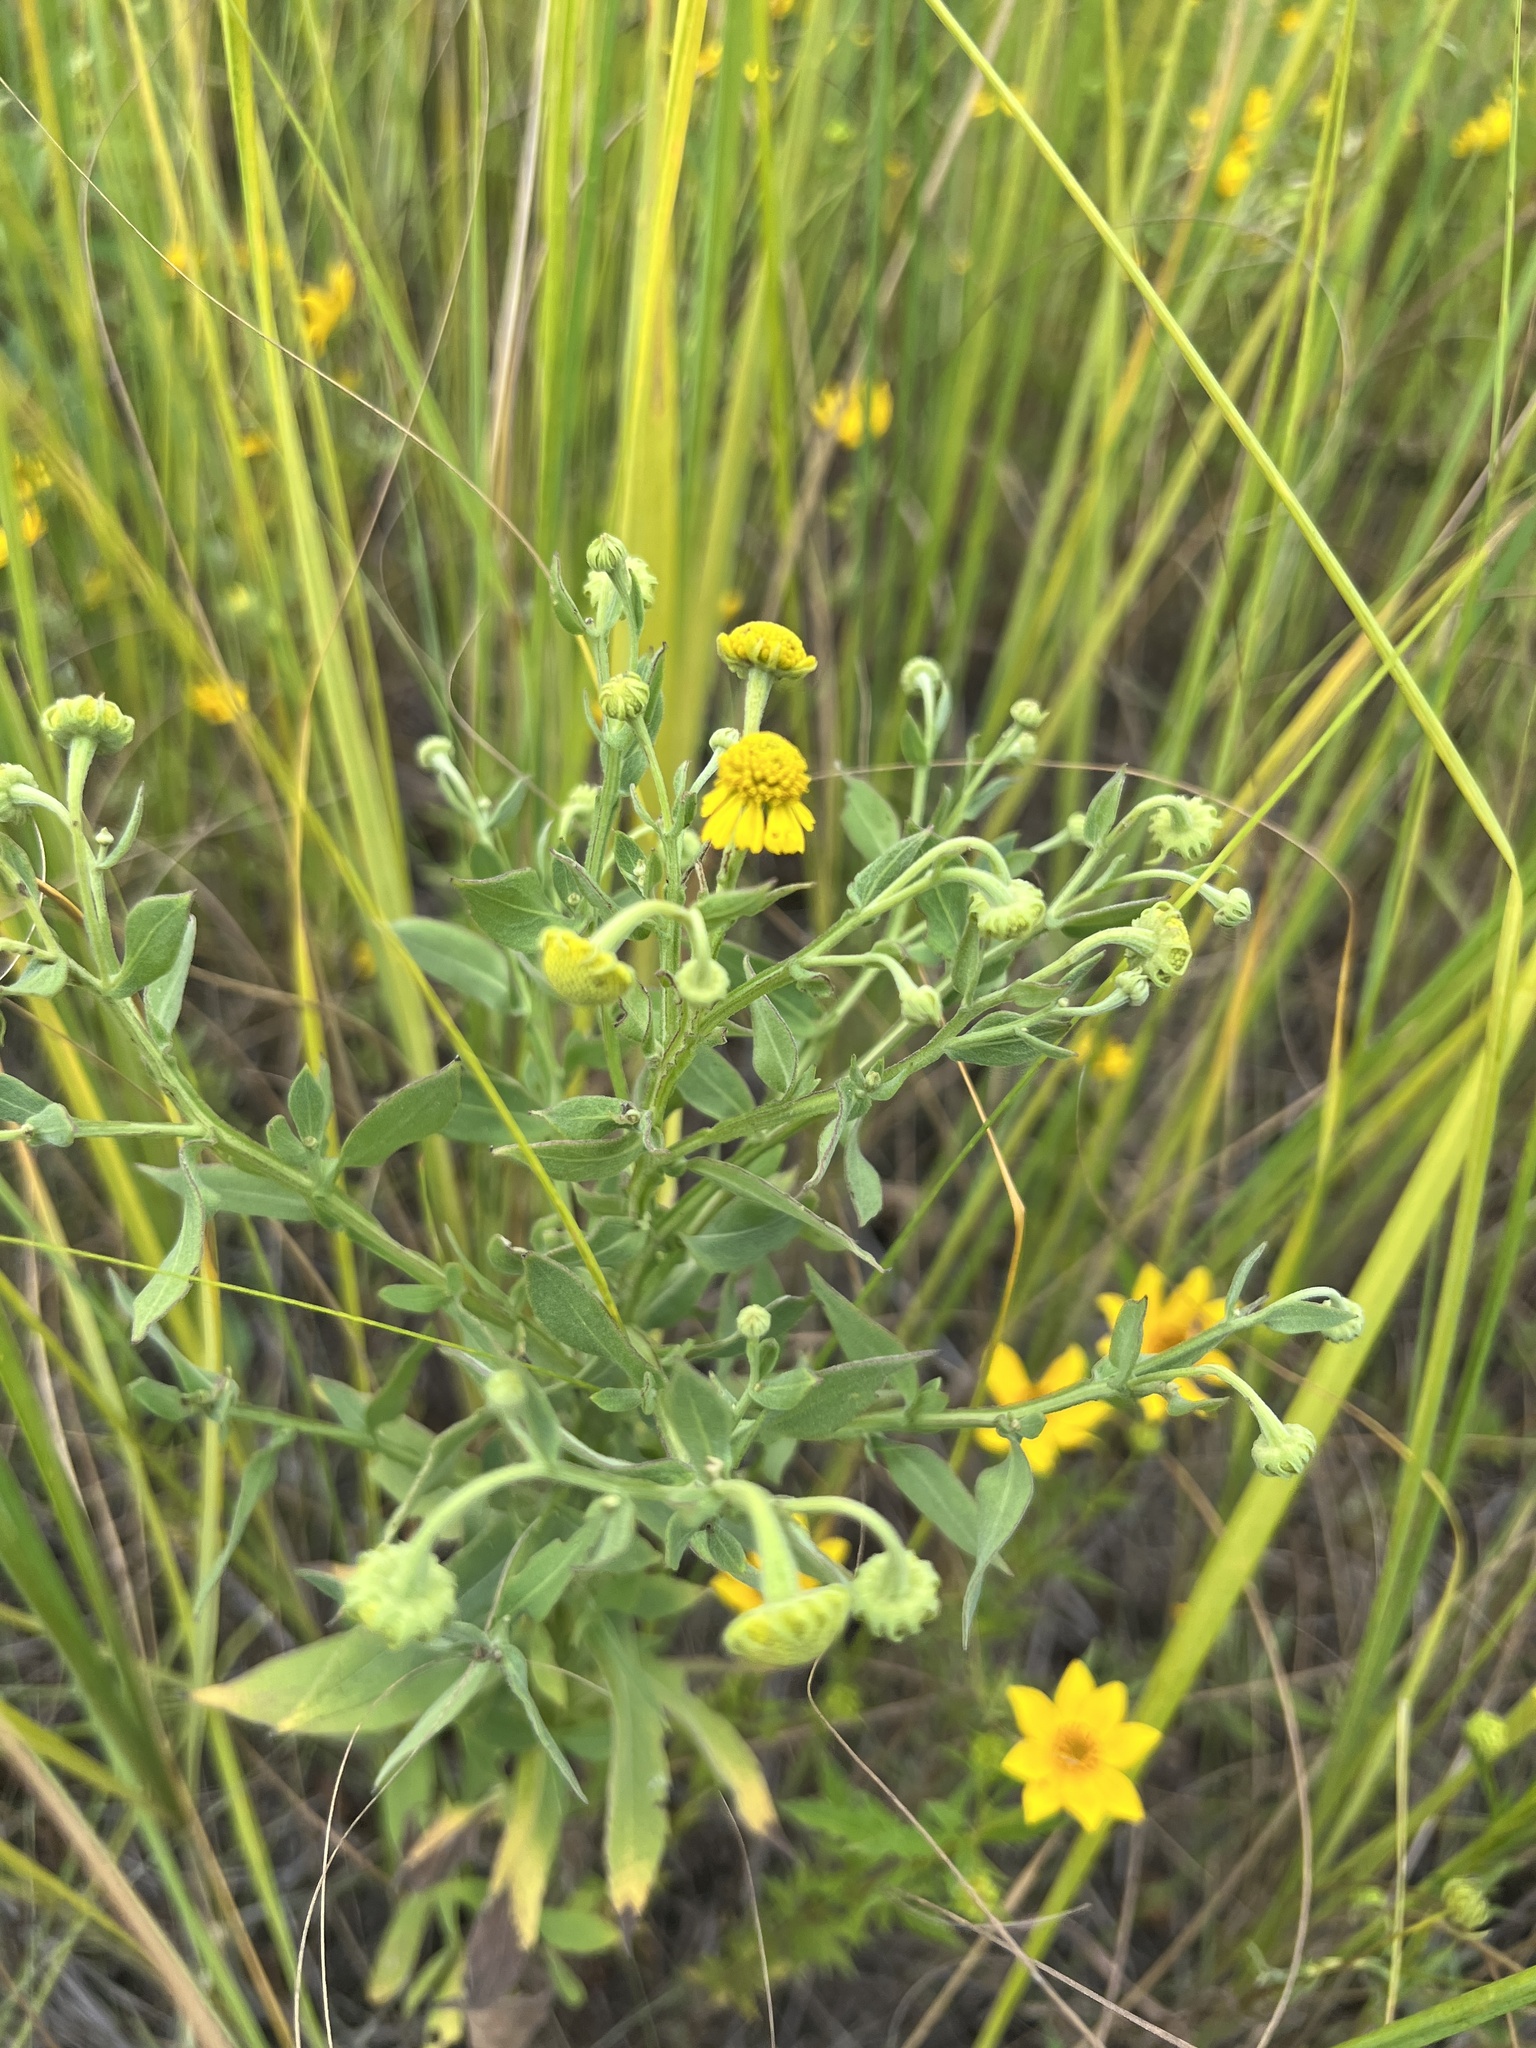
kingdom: Plantae
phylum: Tracheophyta
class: Magnoliopsida
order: Asterales
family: Asteraceae
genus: Helenium
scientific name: Helenium autumnale
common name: Sneezeweed
